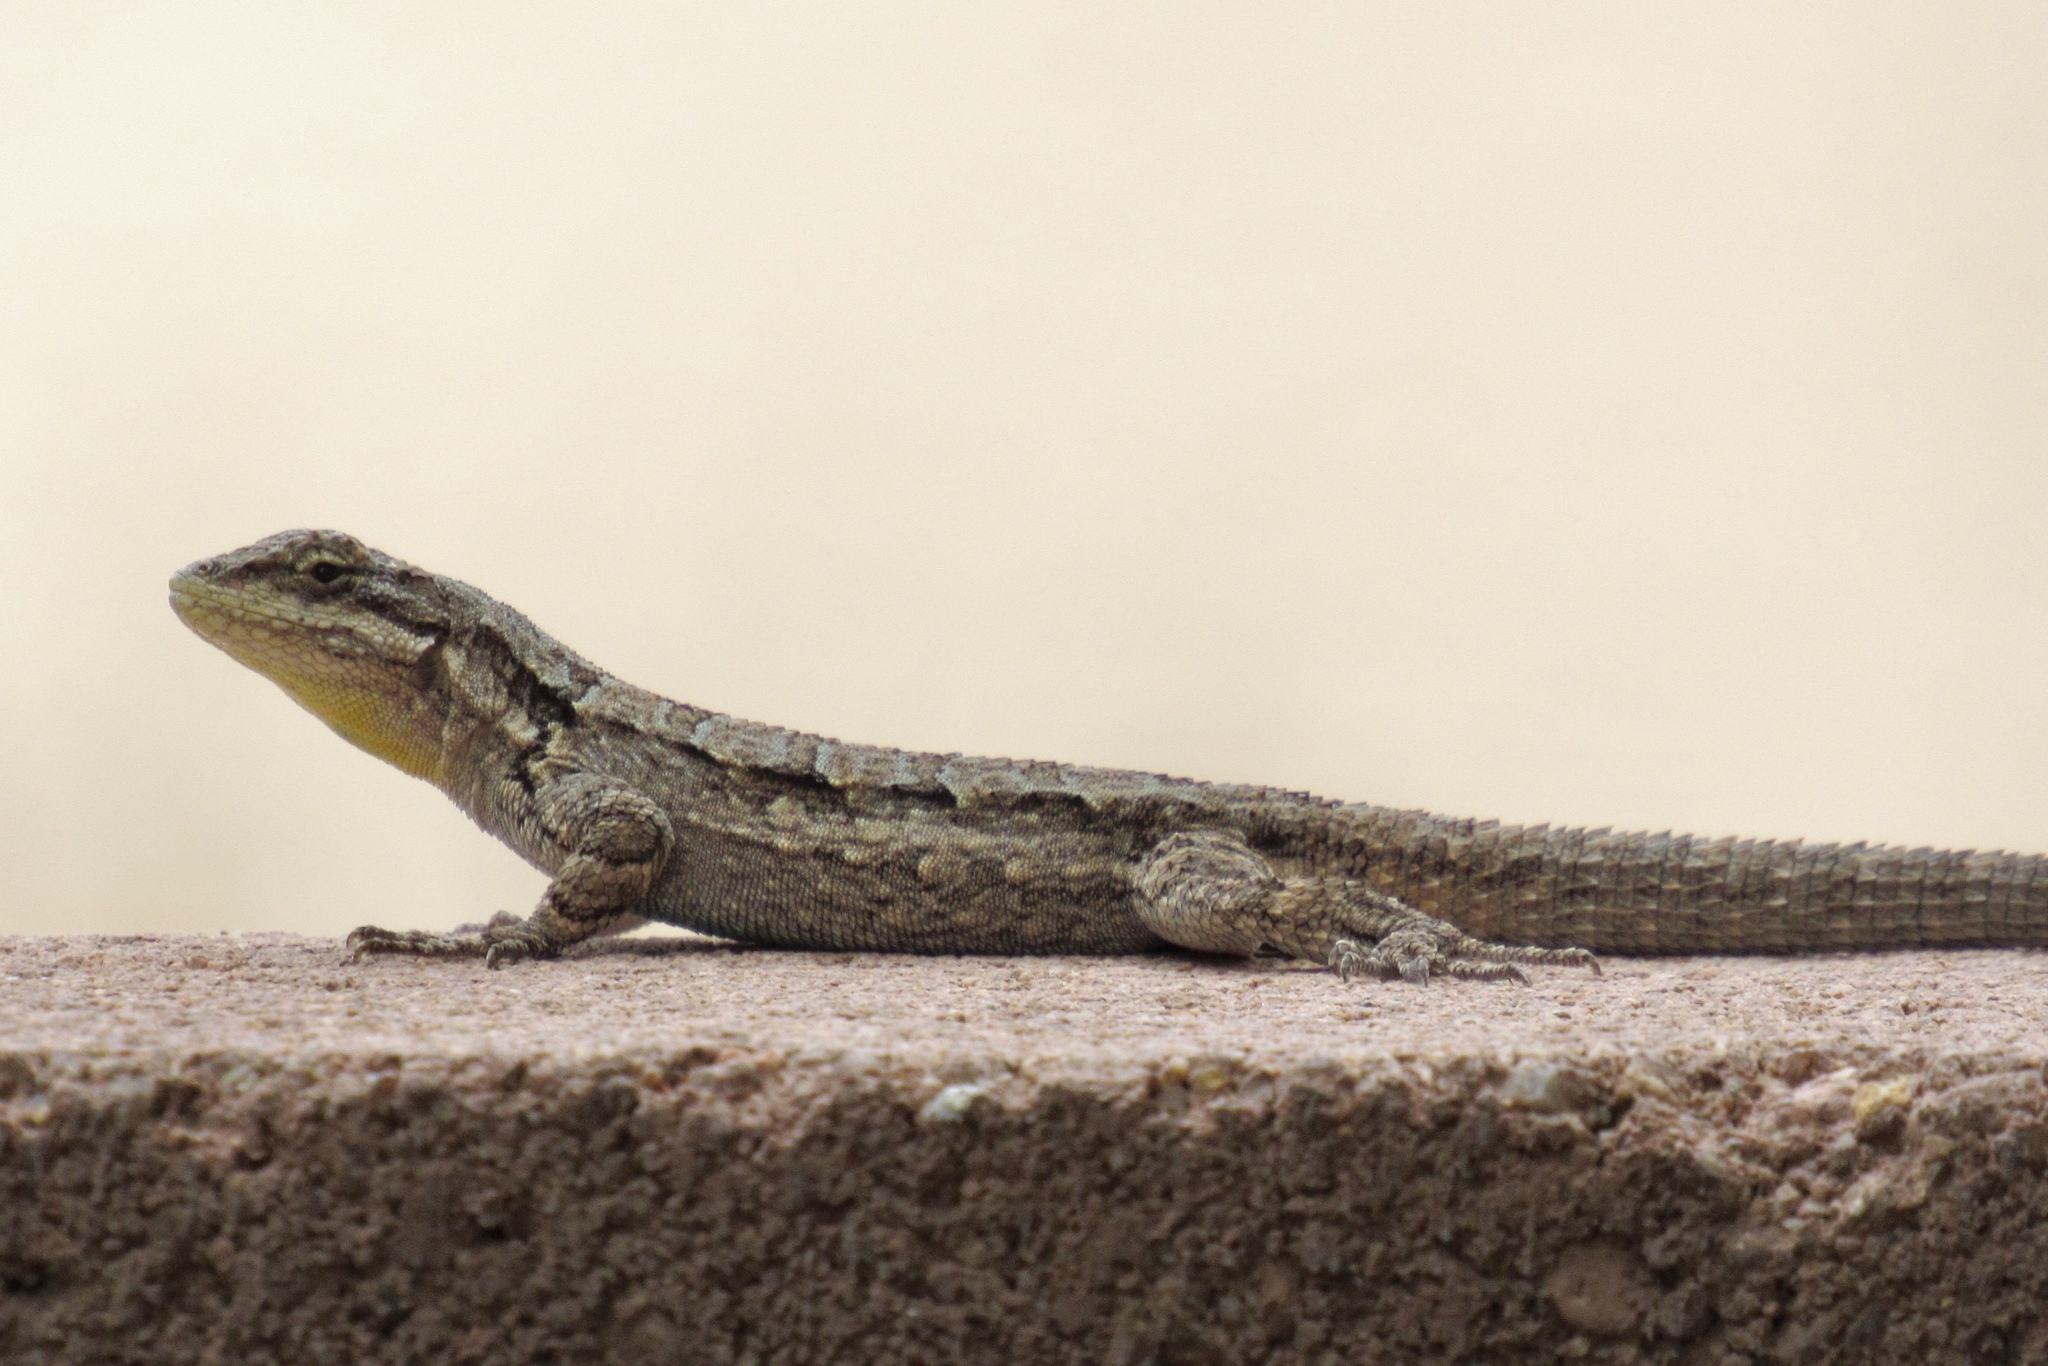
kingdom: Animalia
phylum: Chordata
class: Squamata
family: Phrynosomatidae
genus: Urosaurus
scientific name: Urosaurus ornatus
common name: Ornate tree lizard
